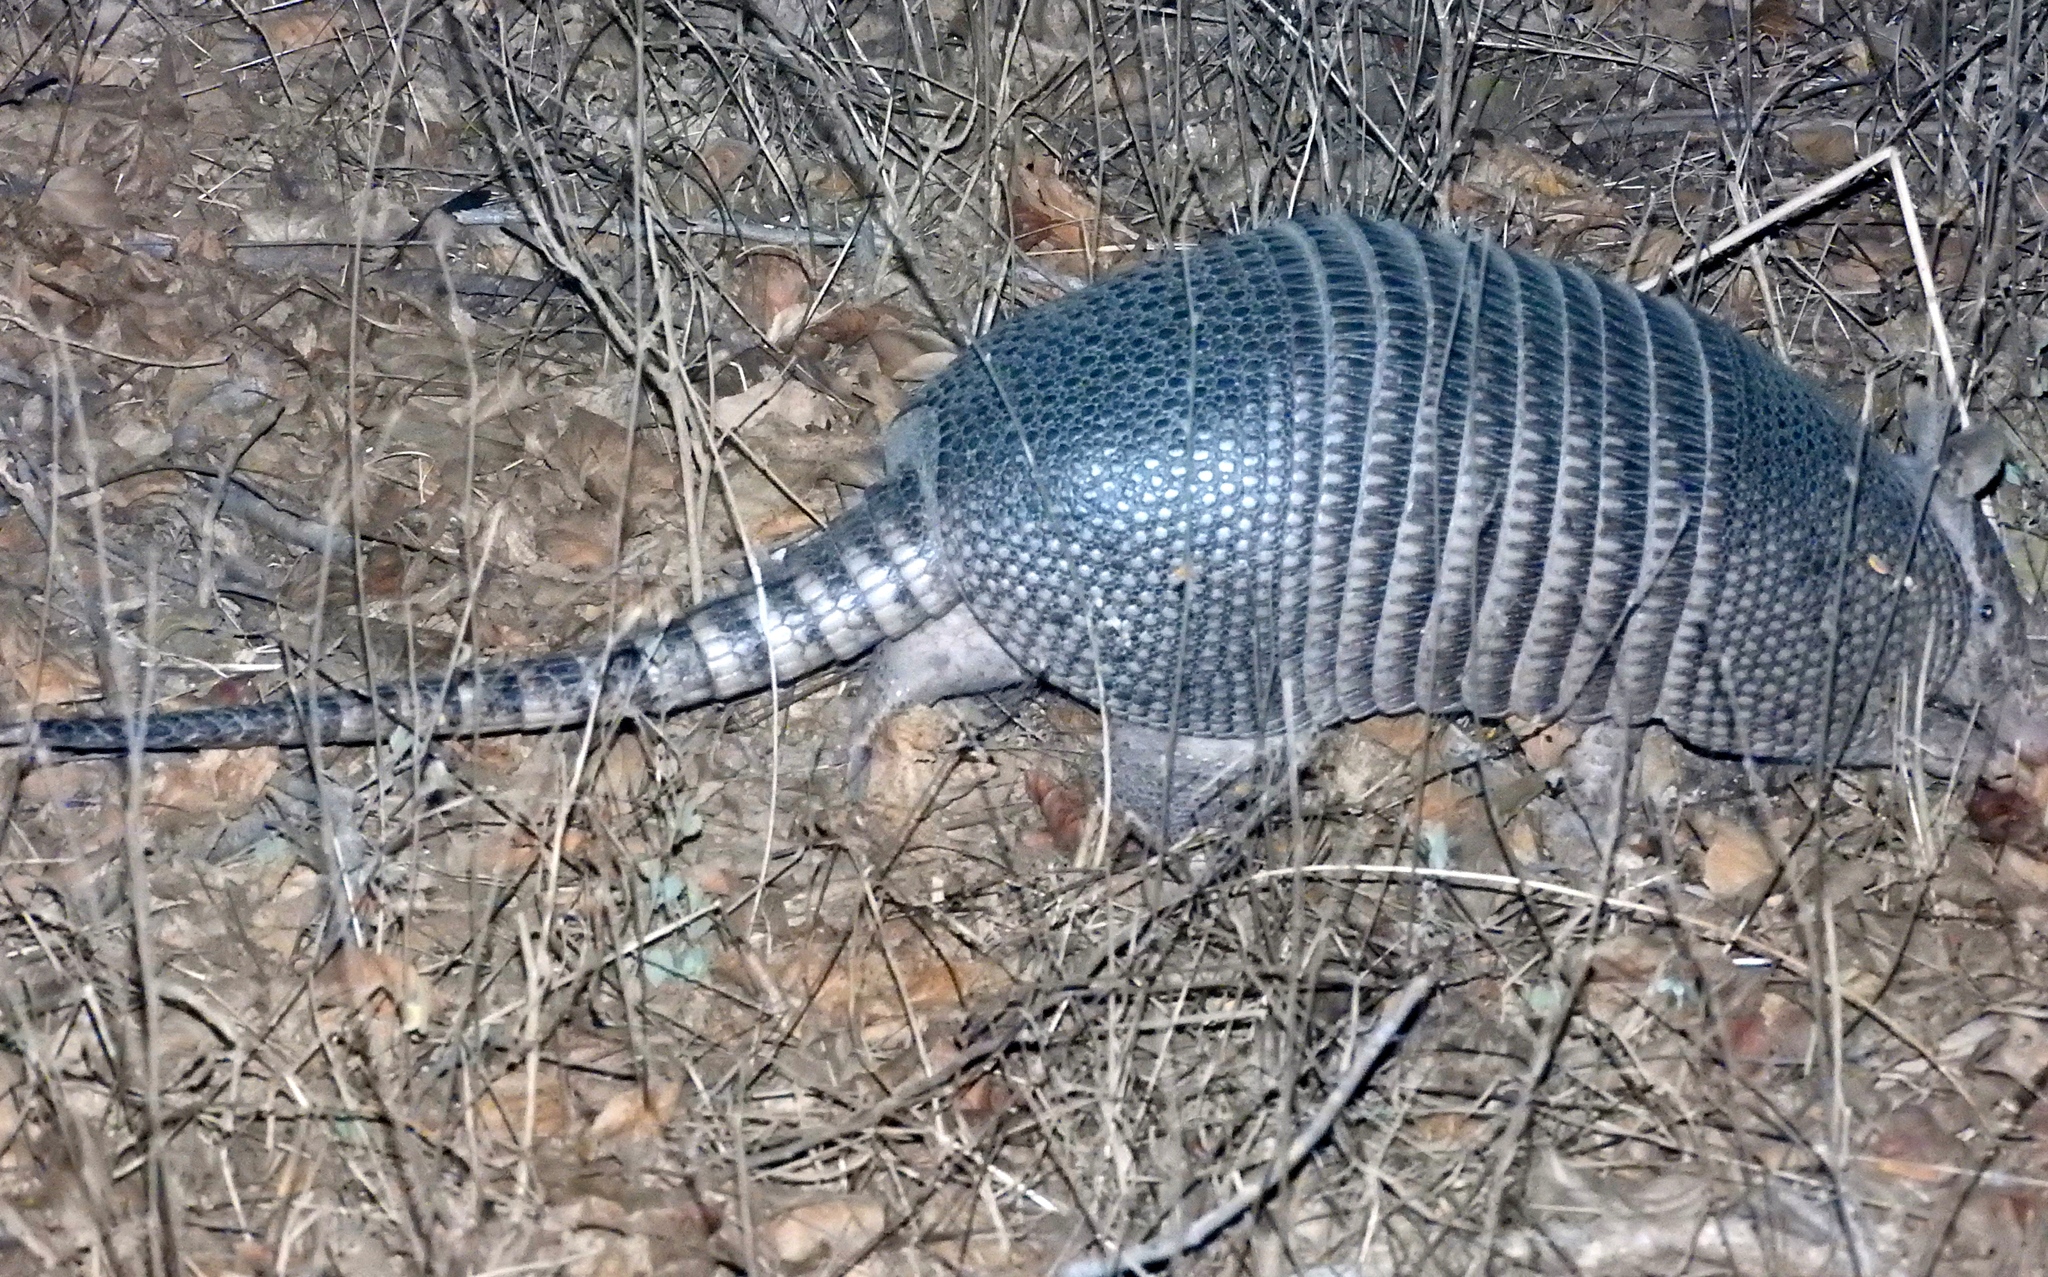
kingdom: Animalia
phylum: Chordata
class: Mammalia
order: Cingulata
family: Dasypodidae
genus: Dasypus
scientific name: Dasypus novemcinctus
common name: Nine-banded armadillo
